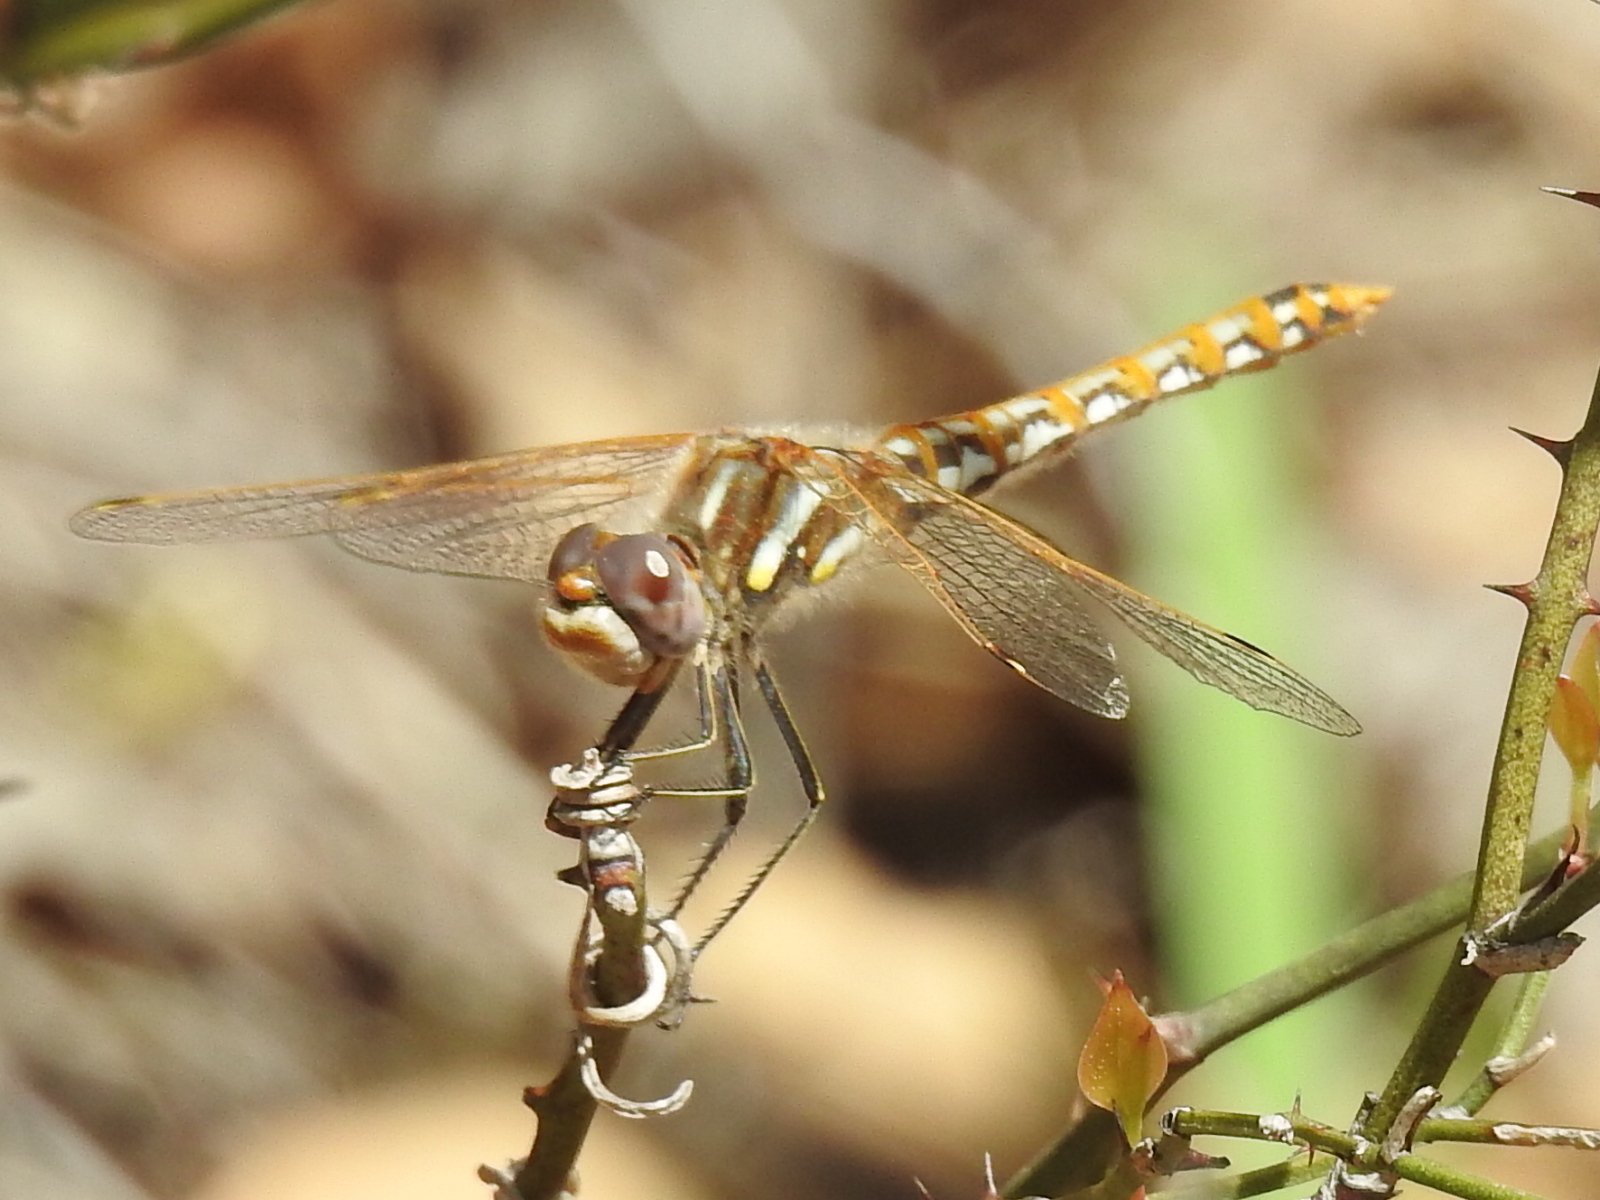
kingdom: Animalia
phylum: Arthropoda
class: Insecta
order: Odonata
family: Libellulidae
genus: Sympetrum
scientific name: Sympetrum corruptum
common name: Variegated meadowhawk
